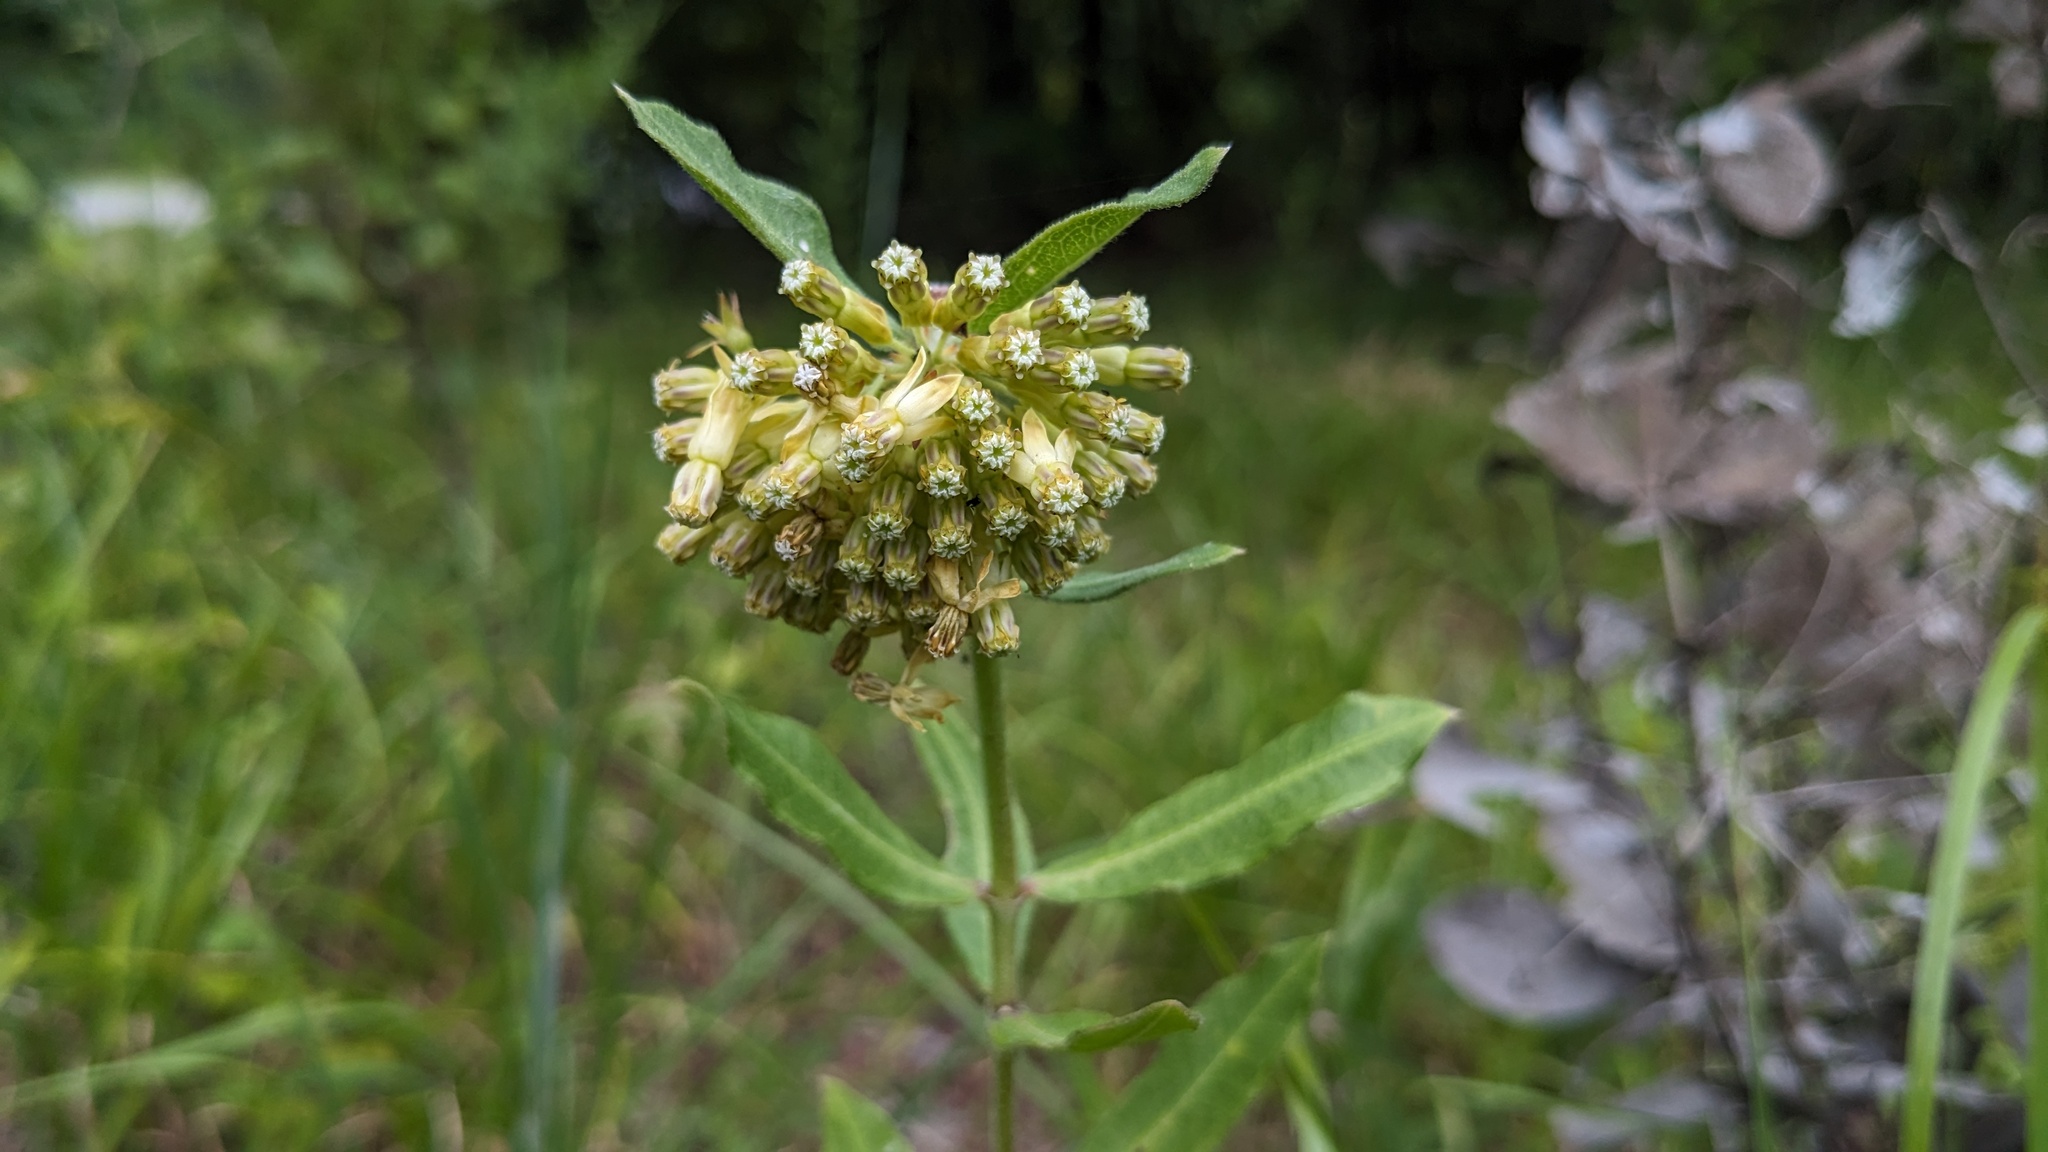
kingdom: Plantae
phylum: Tracheophyta
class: Magnoliopsida
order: Gentianales
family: Apocynaceae
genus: Asclepias
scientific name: Asclepias viridiflora
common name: Green comet milkweed
